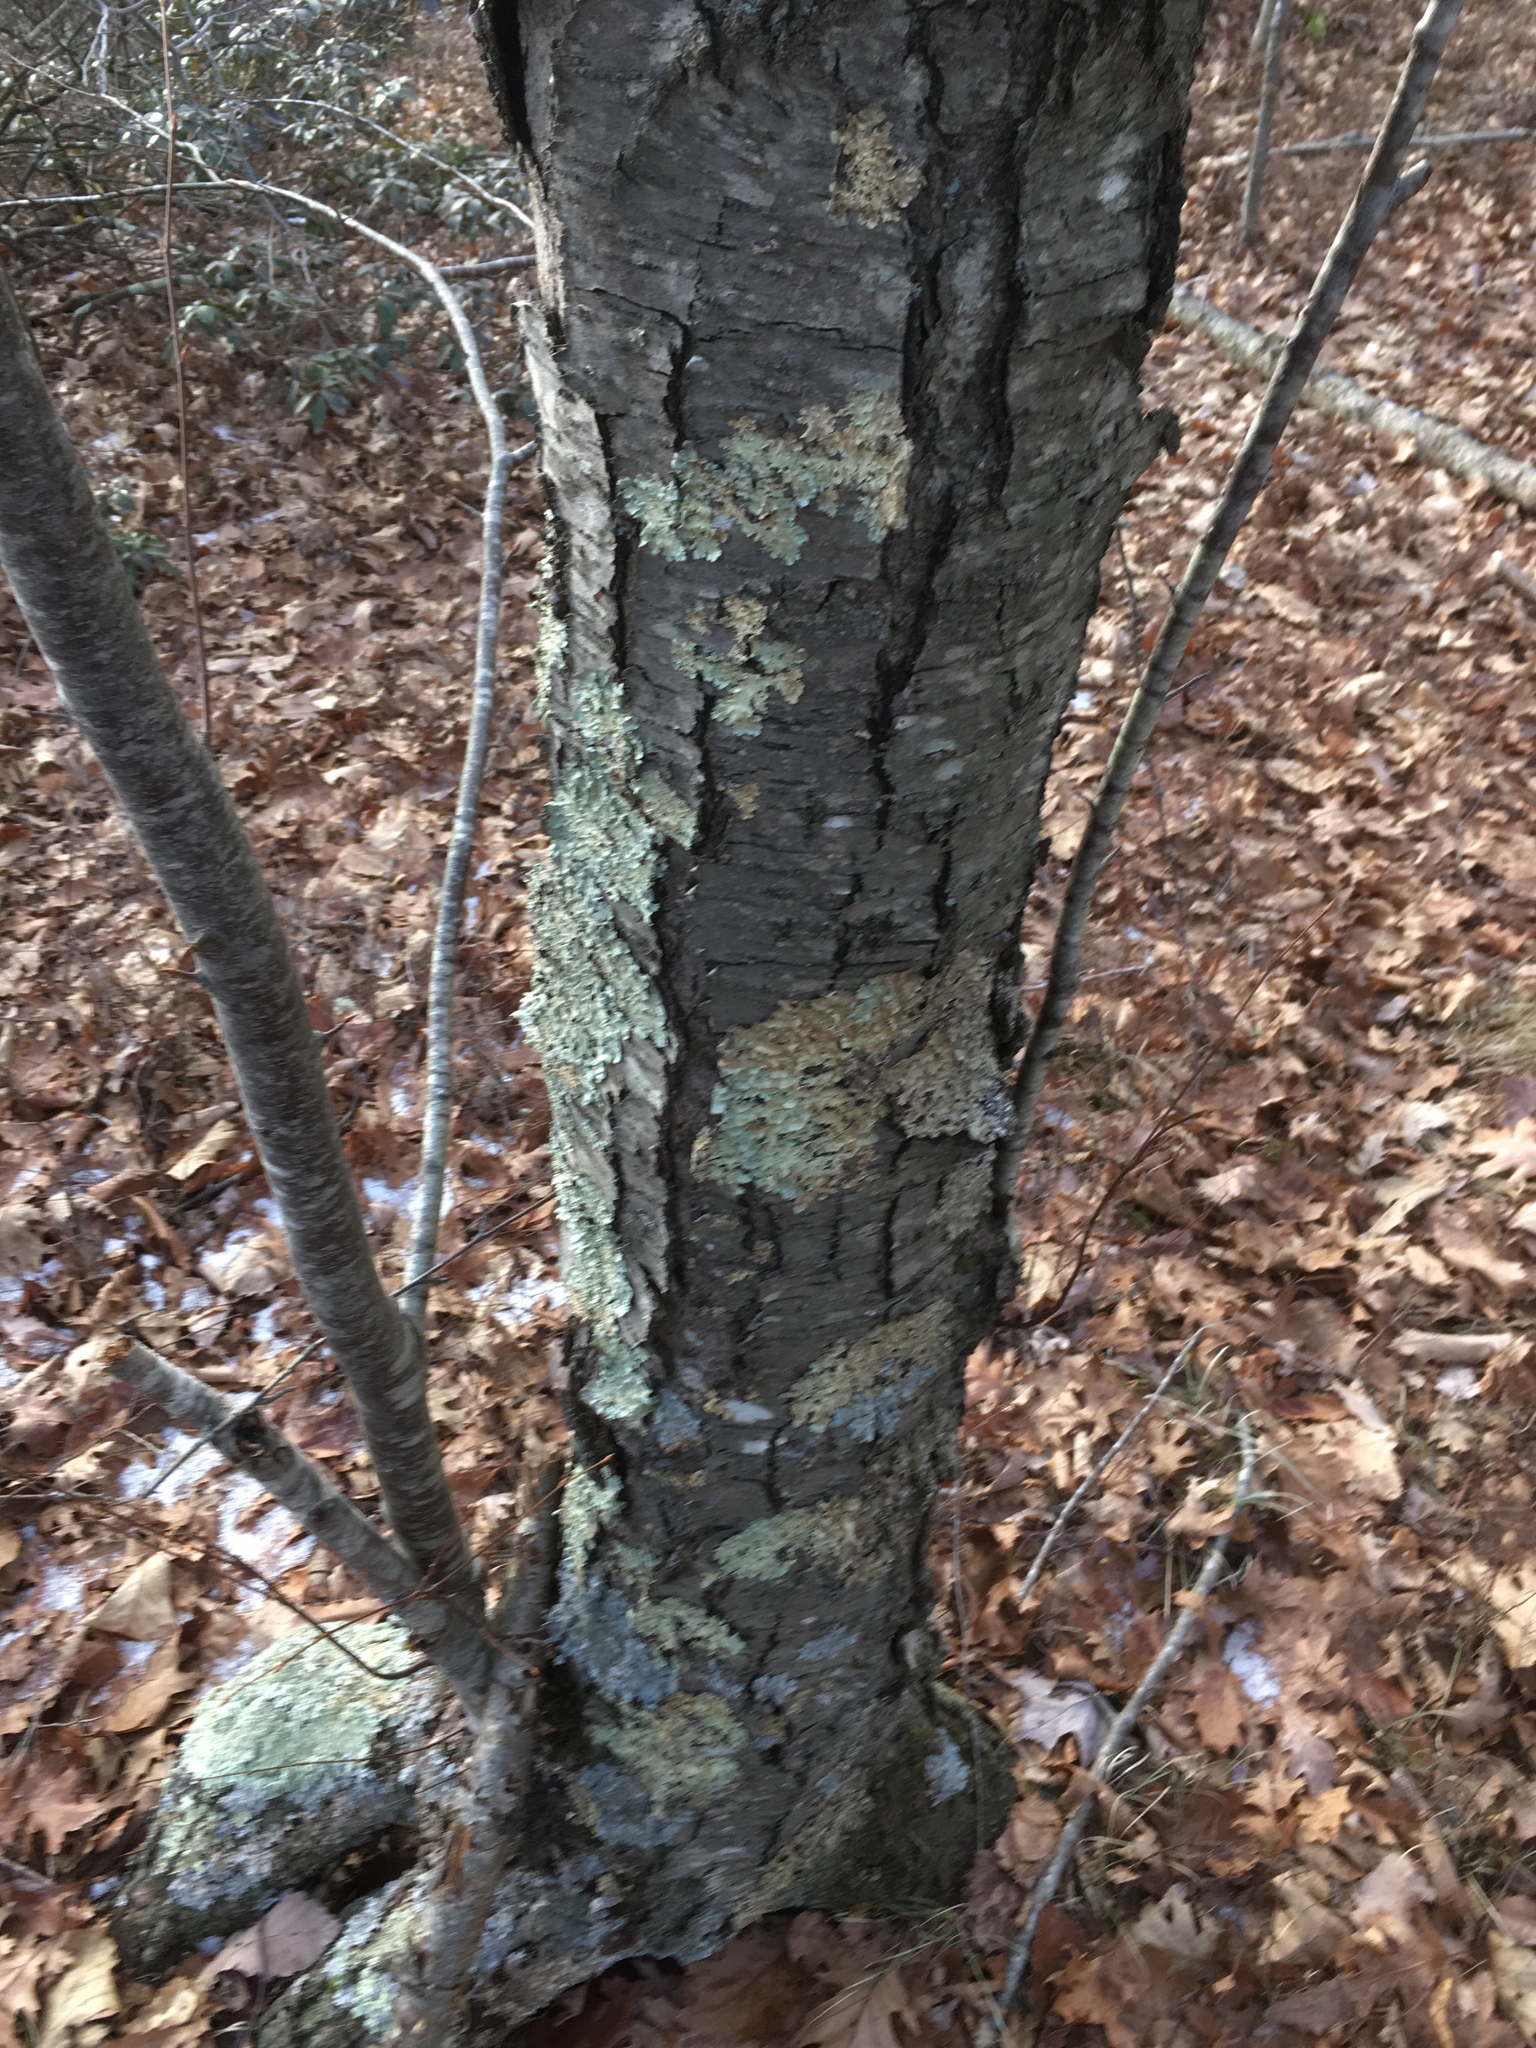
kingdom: Plantae
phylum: Tracheophyta
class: Magnoliopsida
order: Fagales
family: Betulaceae
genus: Betula
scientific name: Betula lenta
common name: Black birch
